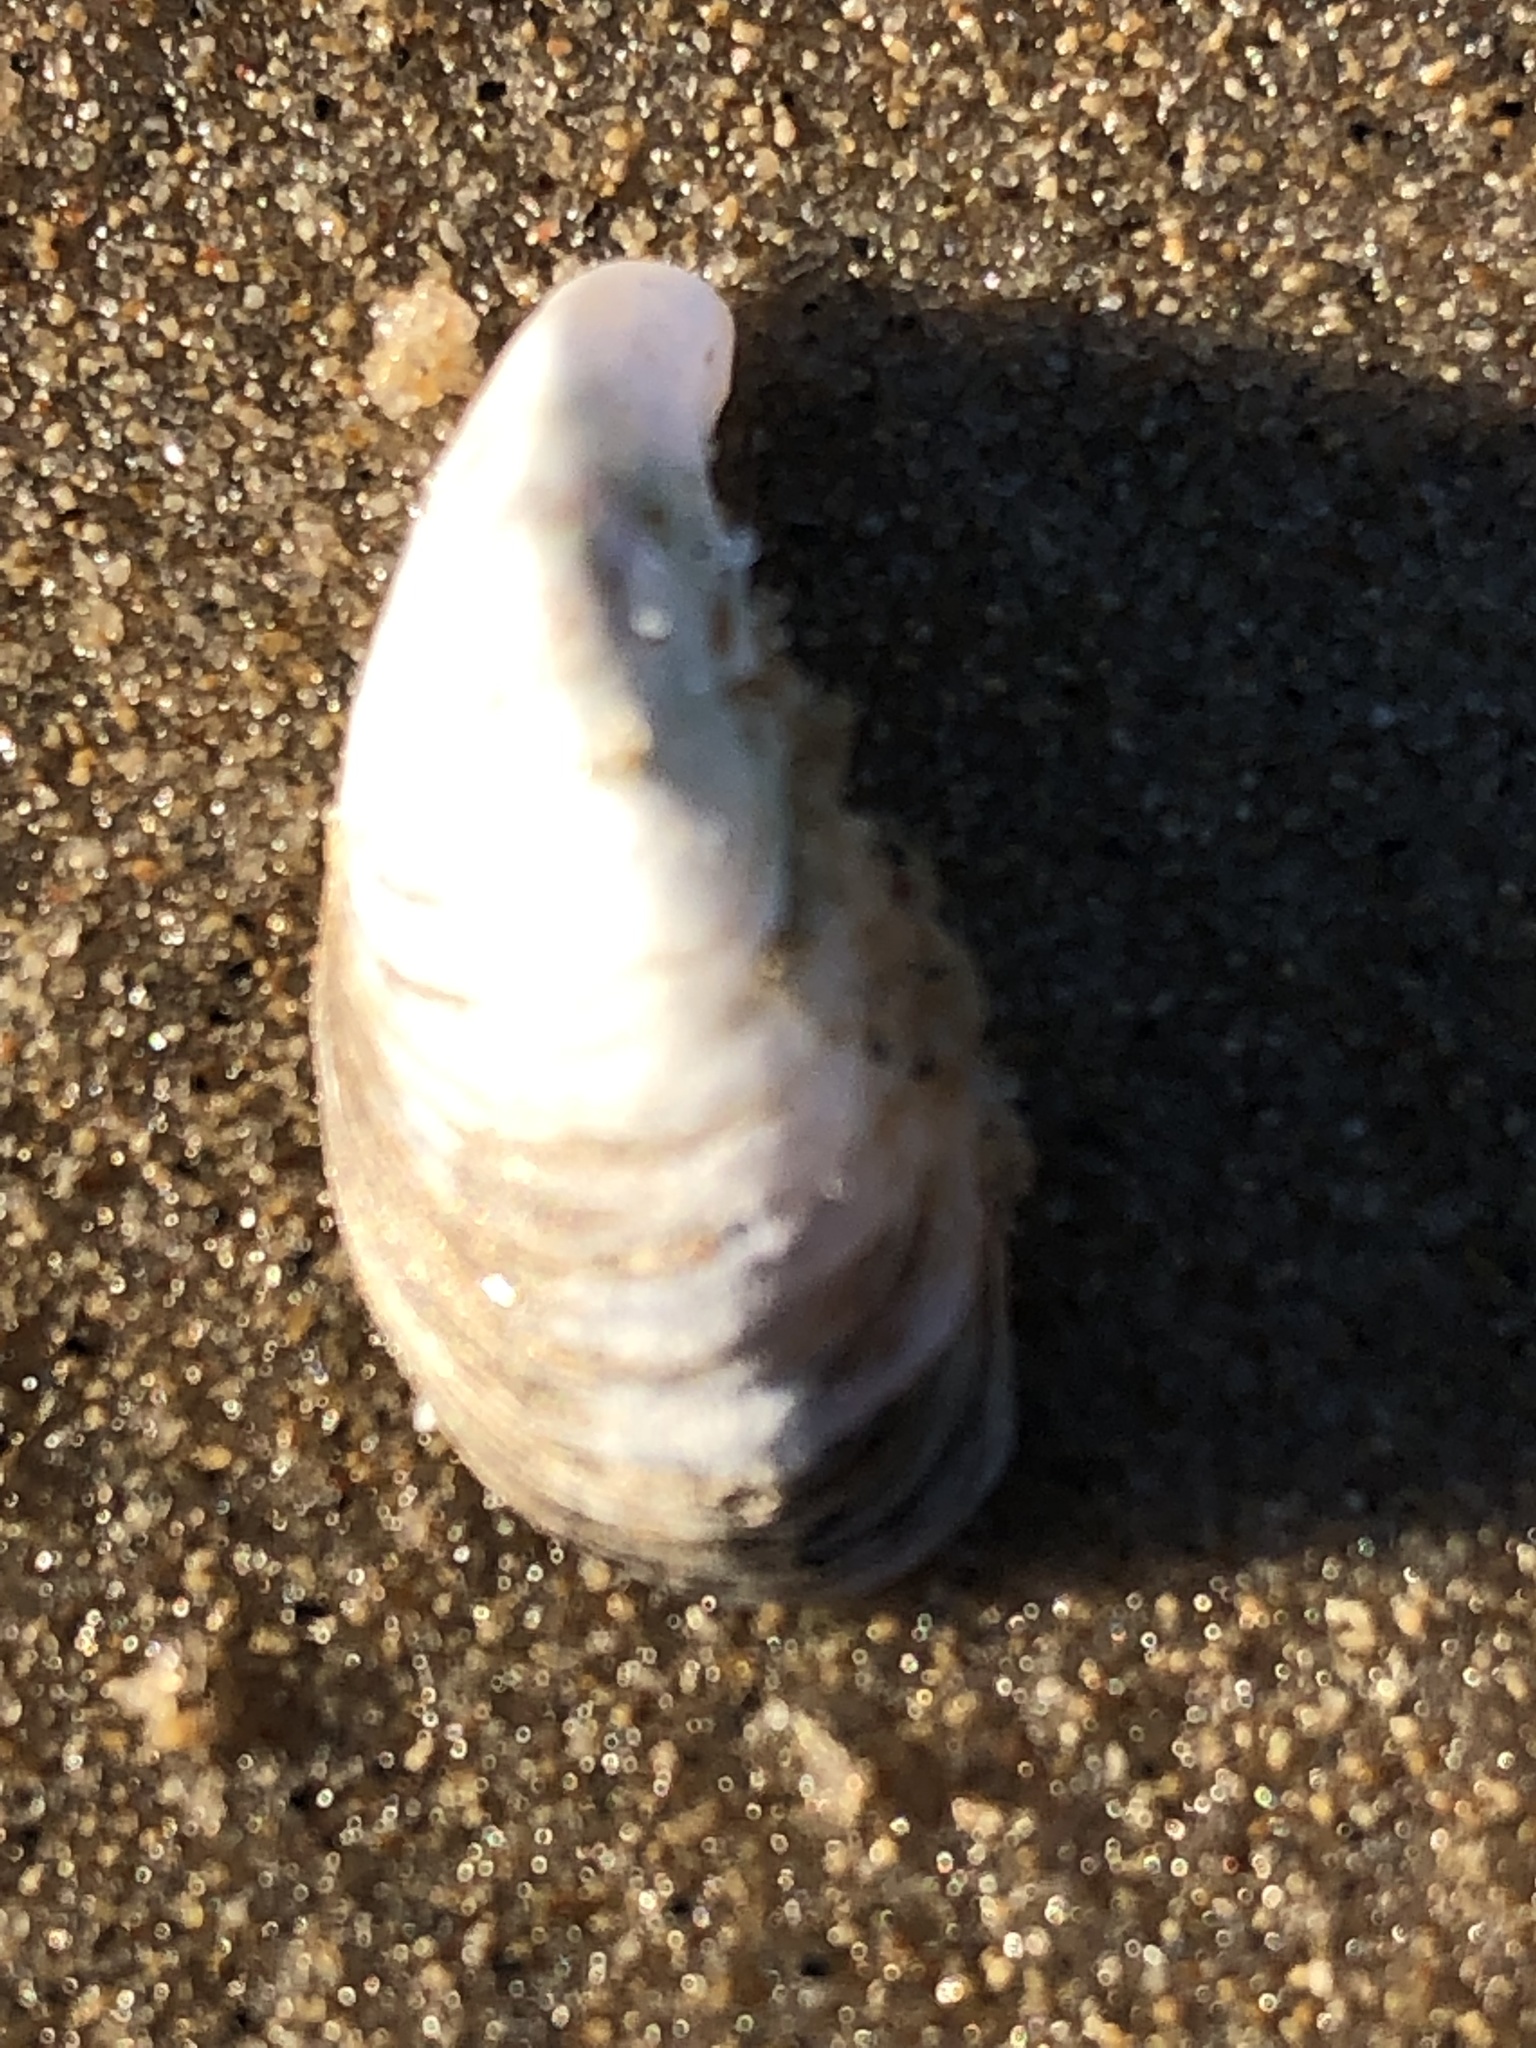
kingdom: Animalia
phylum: Mollusca
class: Bivalvia
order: Myida
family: Dreissenidae
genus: Dreissena
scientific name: Dreissena bugensis
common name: Quagga mussel
